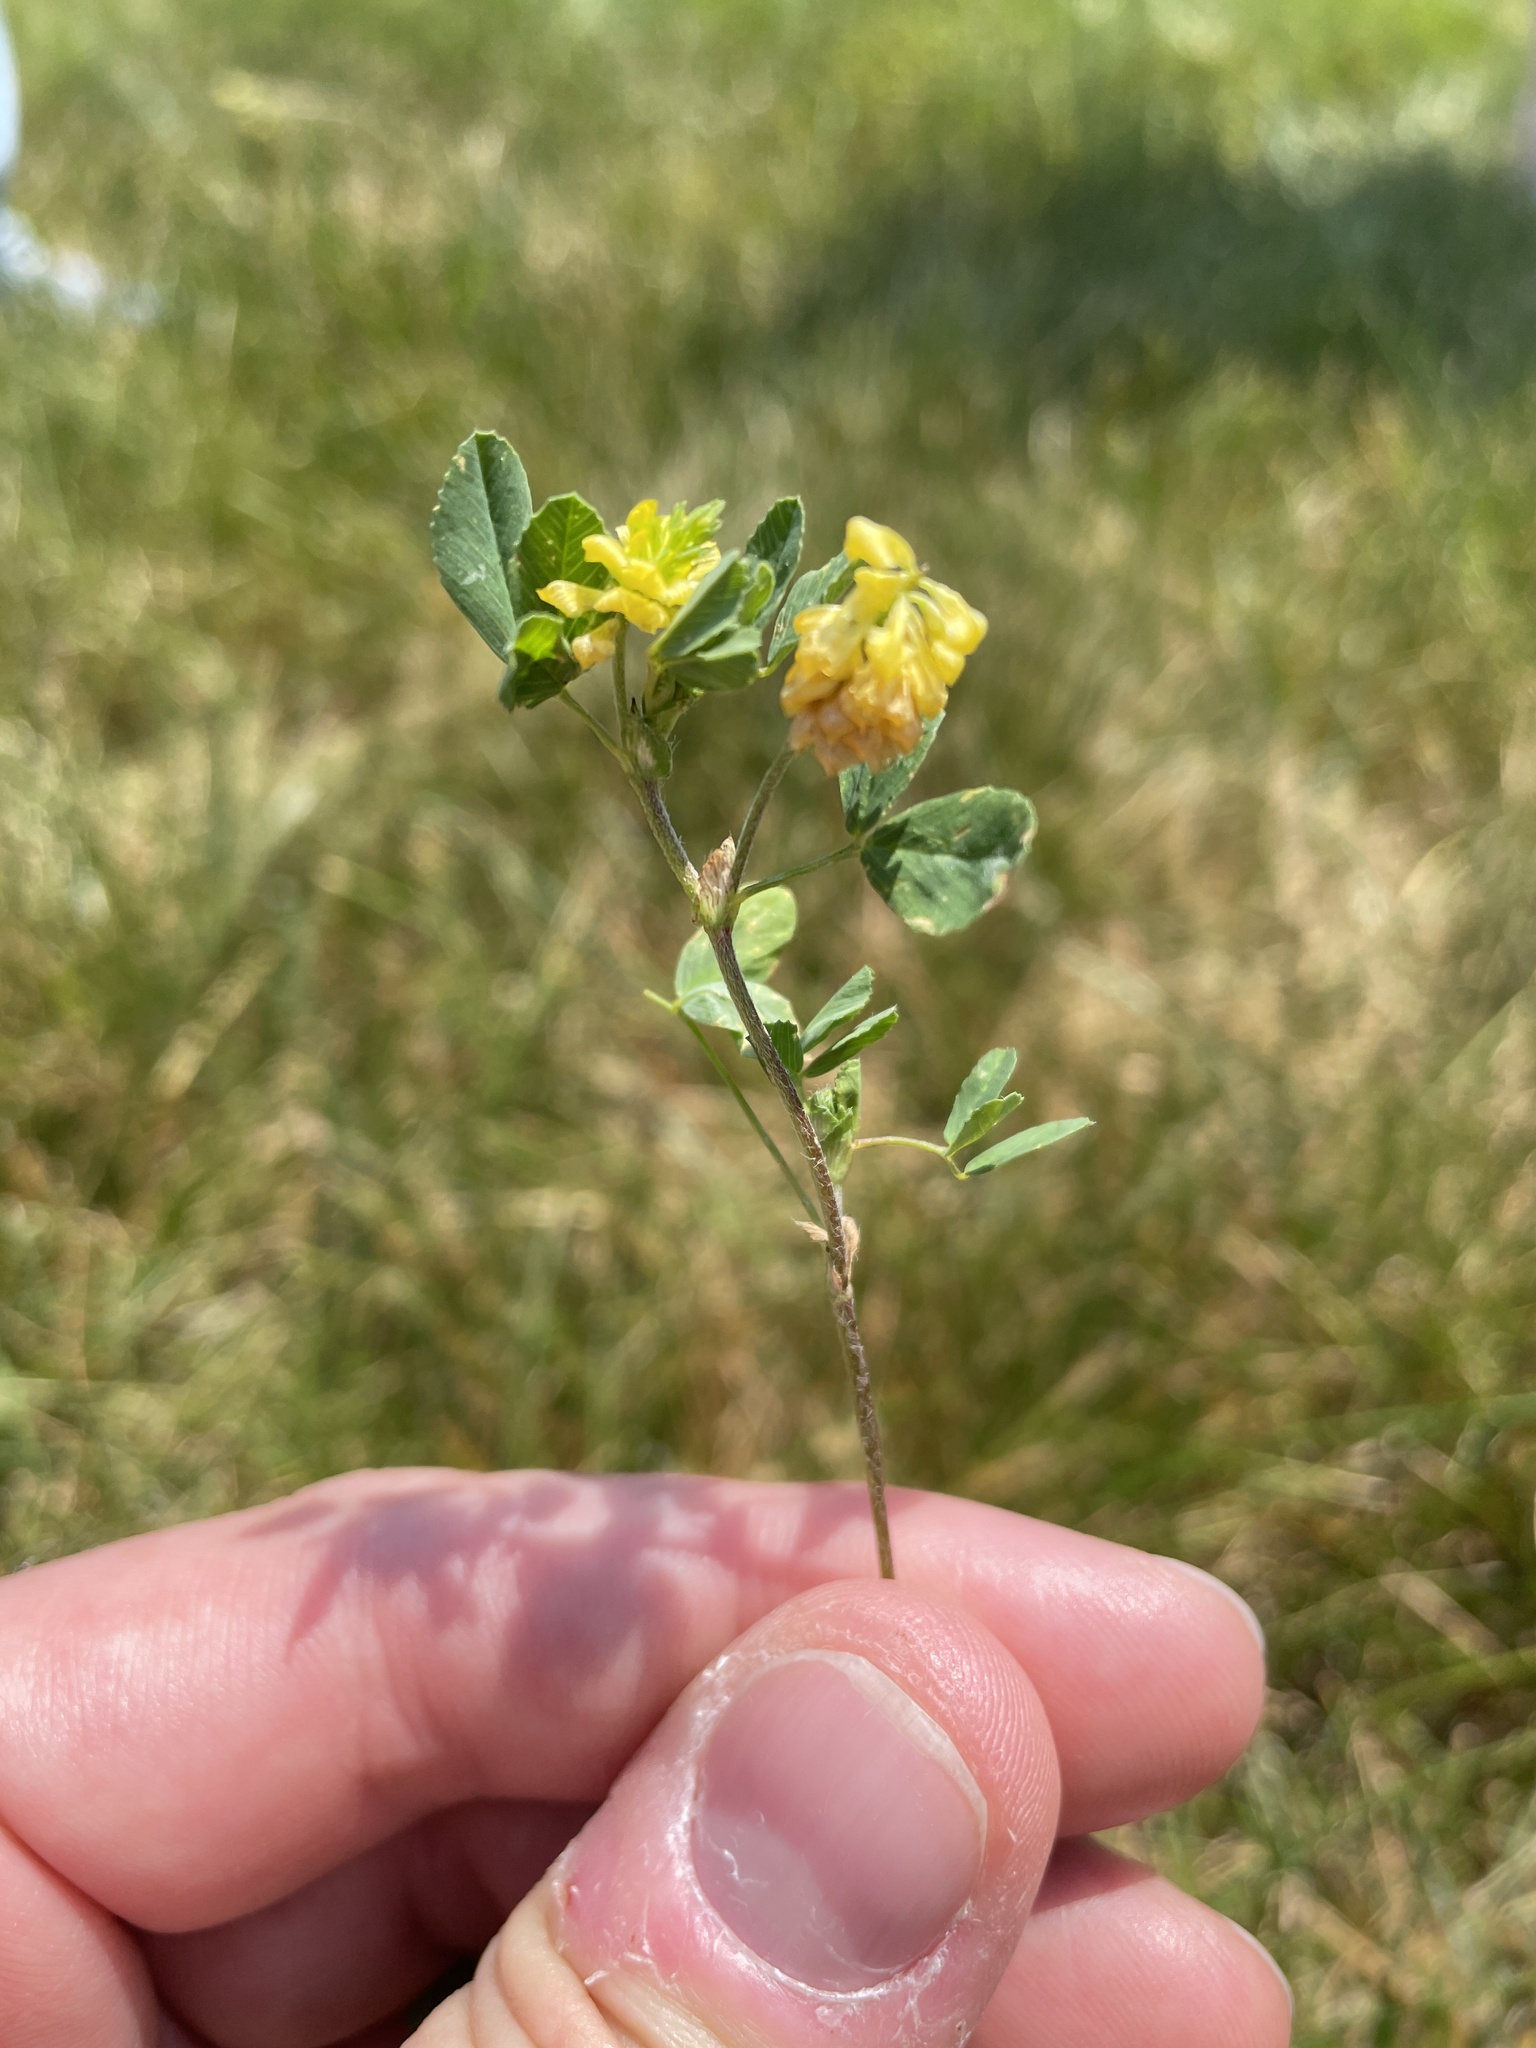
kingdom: Plantae
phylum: Tracheophyta
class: Magnoliopsida
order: Fabales
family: Fabaceae
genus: Trifolium
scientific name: Trifolium campestre
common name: Field clover
